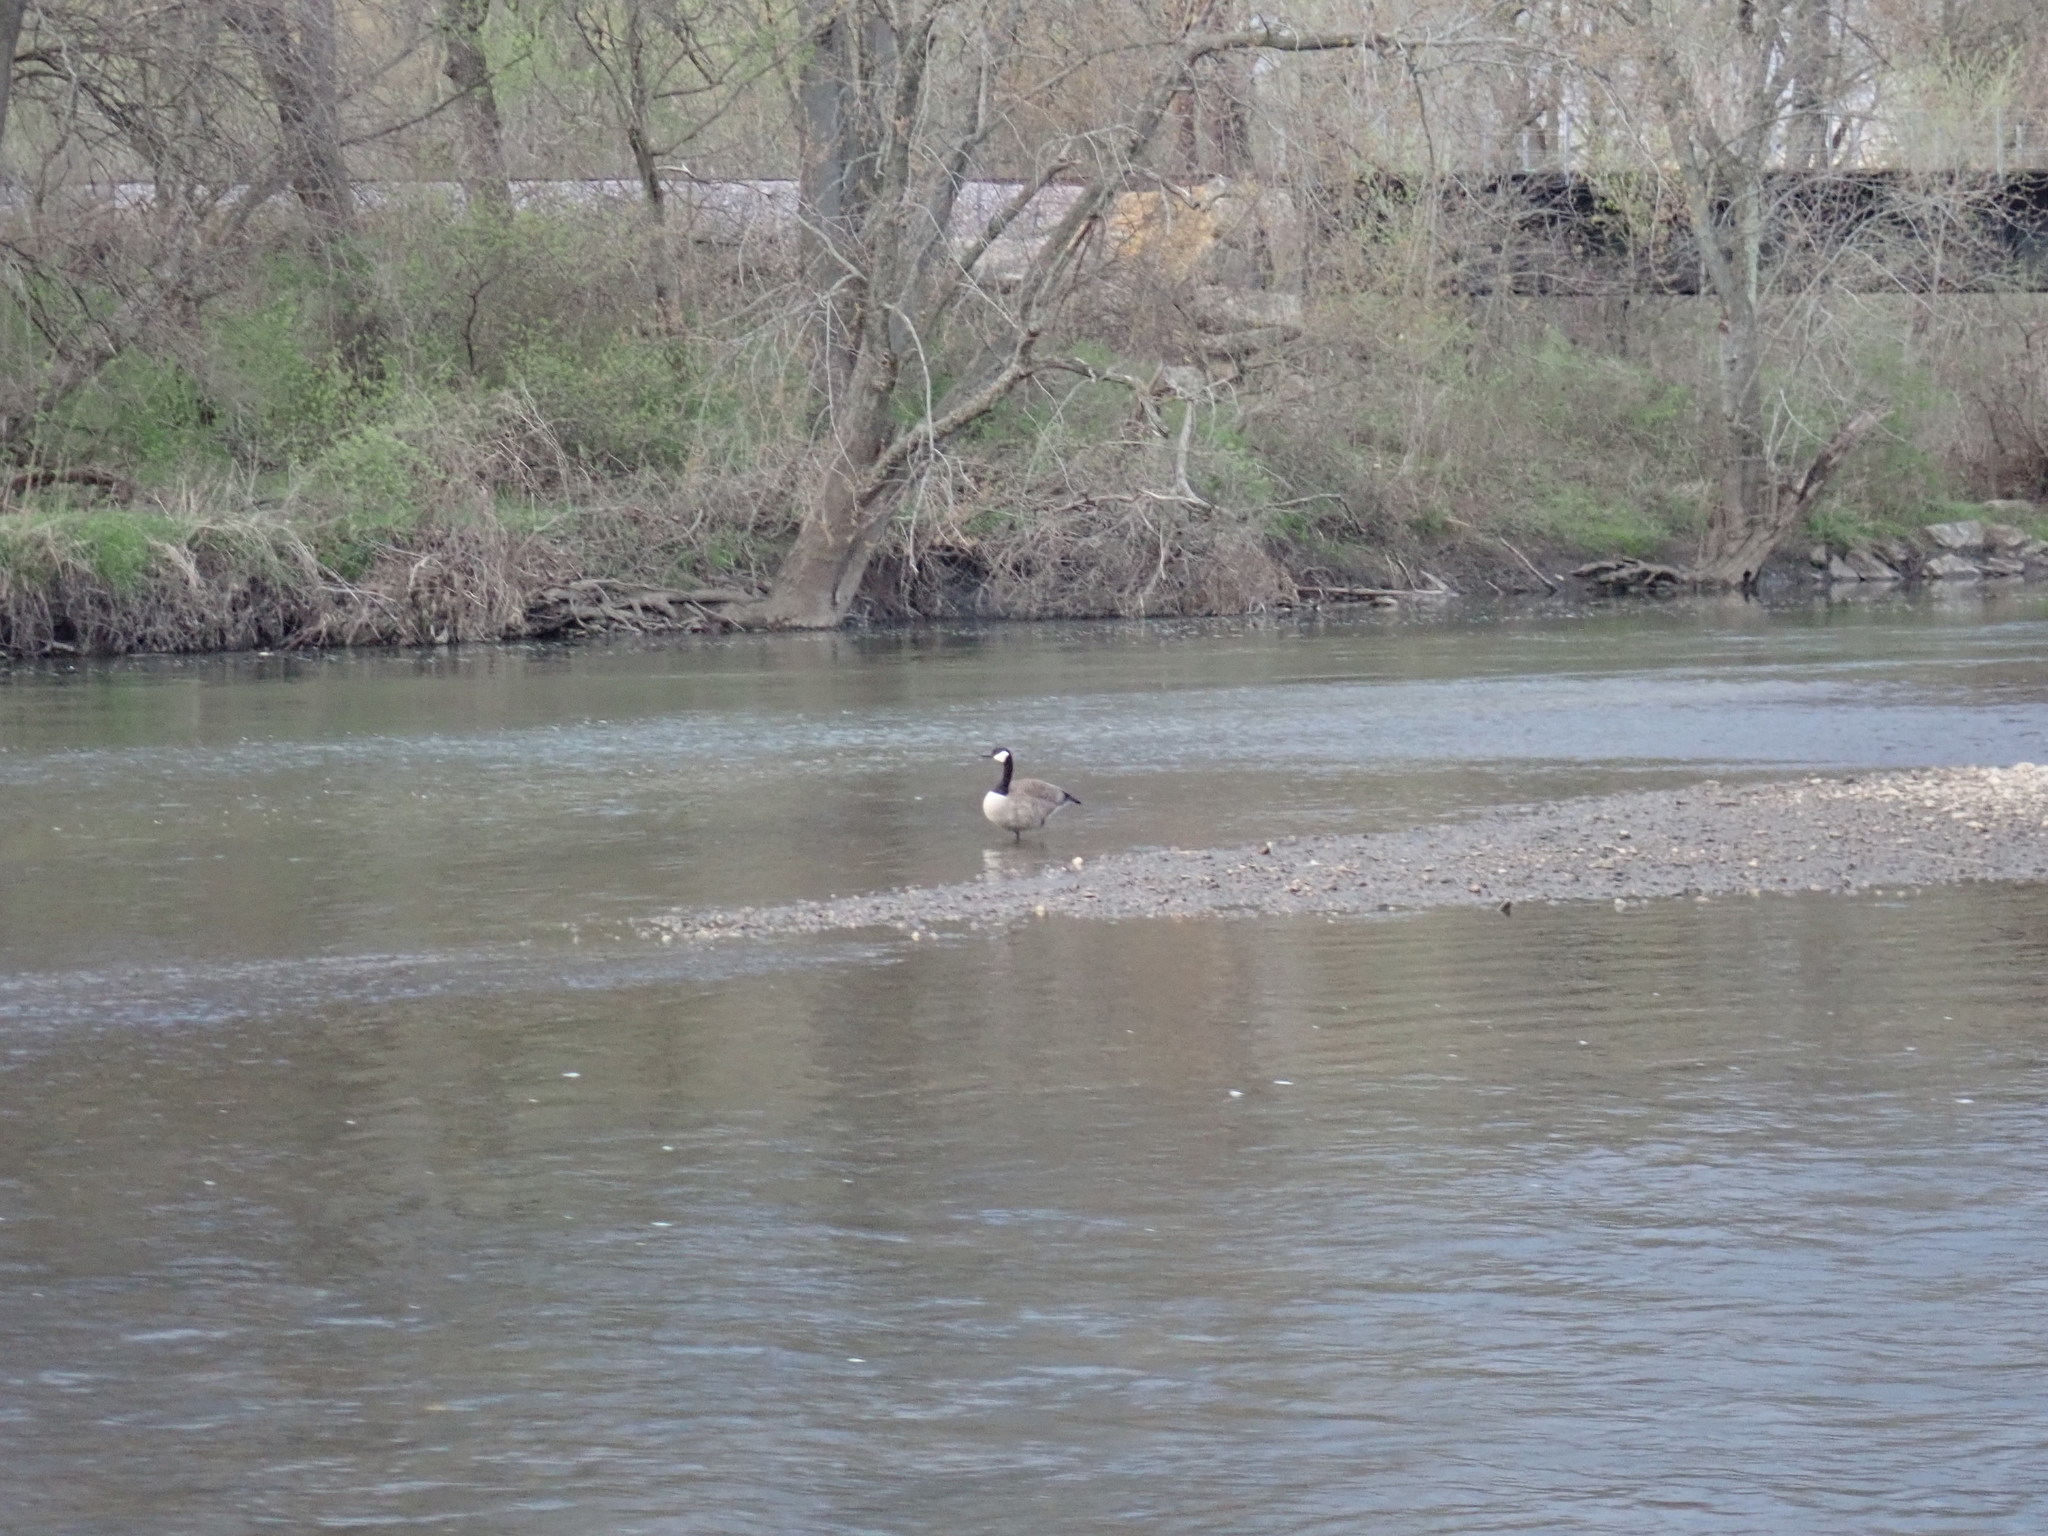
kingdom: Animalia
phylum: Chordata
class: Aves
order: Anseriformes
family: Anatidae
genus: Branta
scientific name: Branta canadensis
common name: Canada goose
